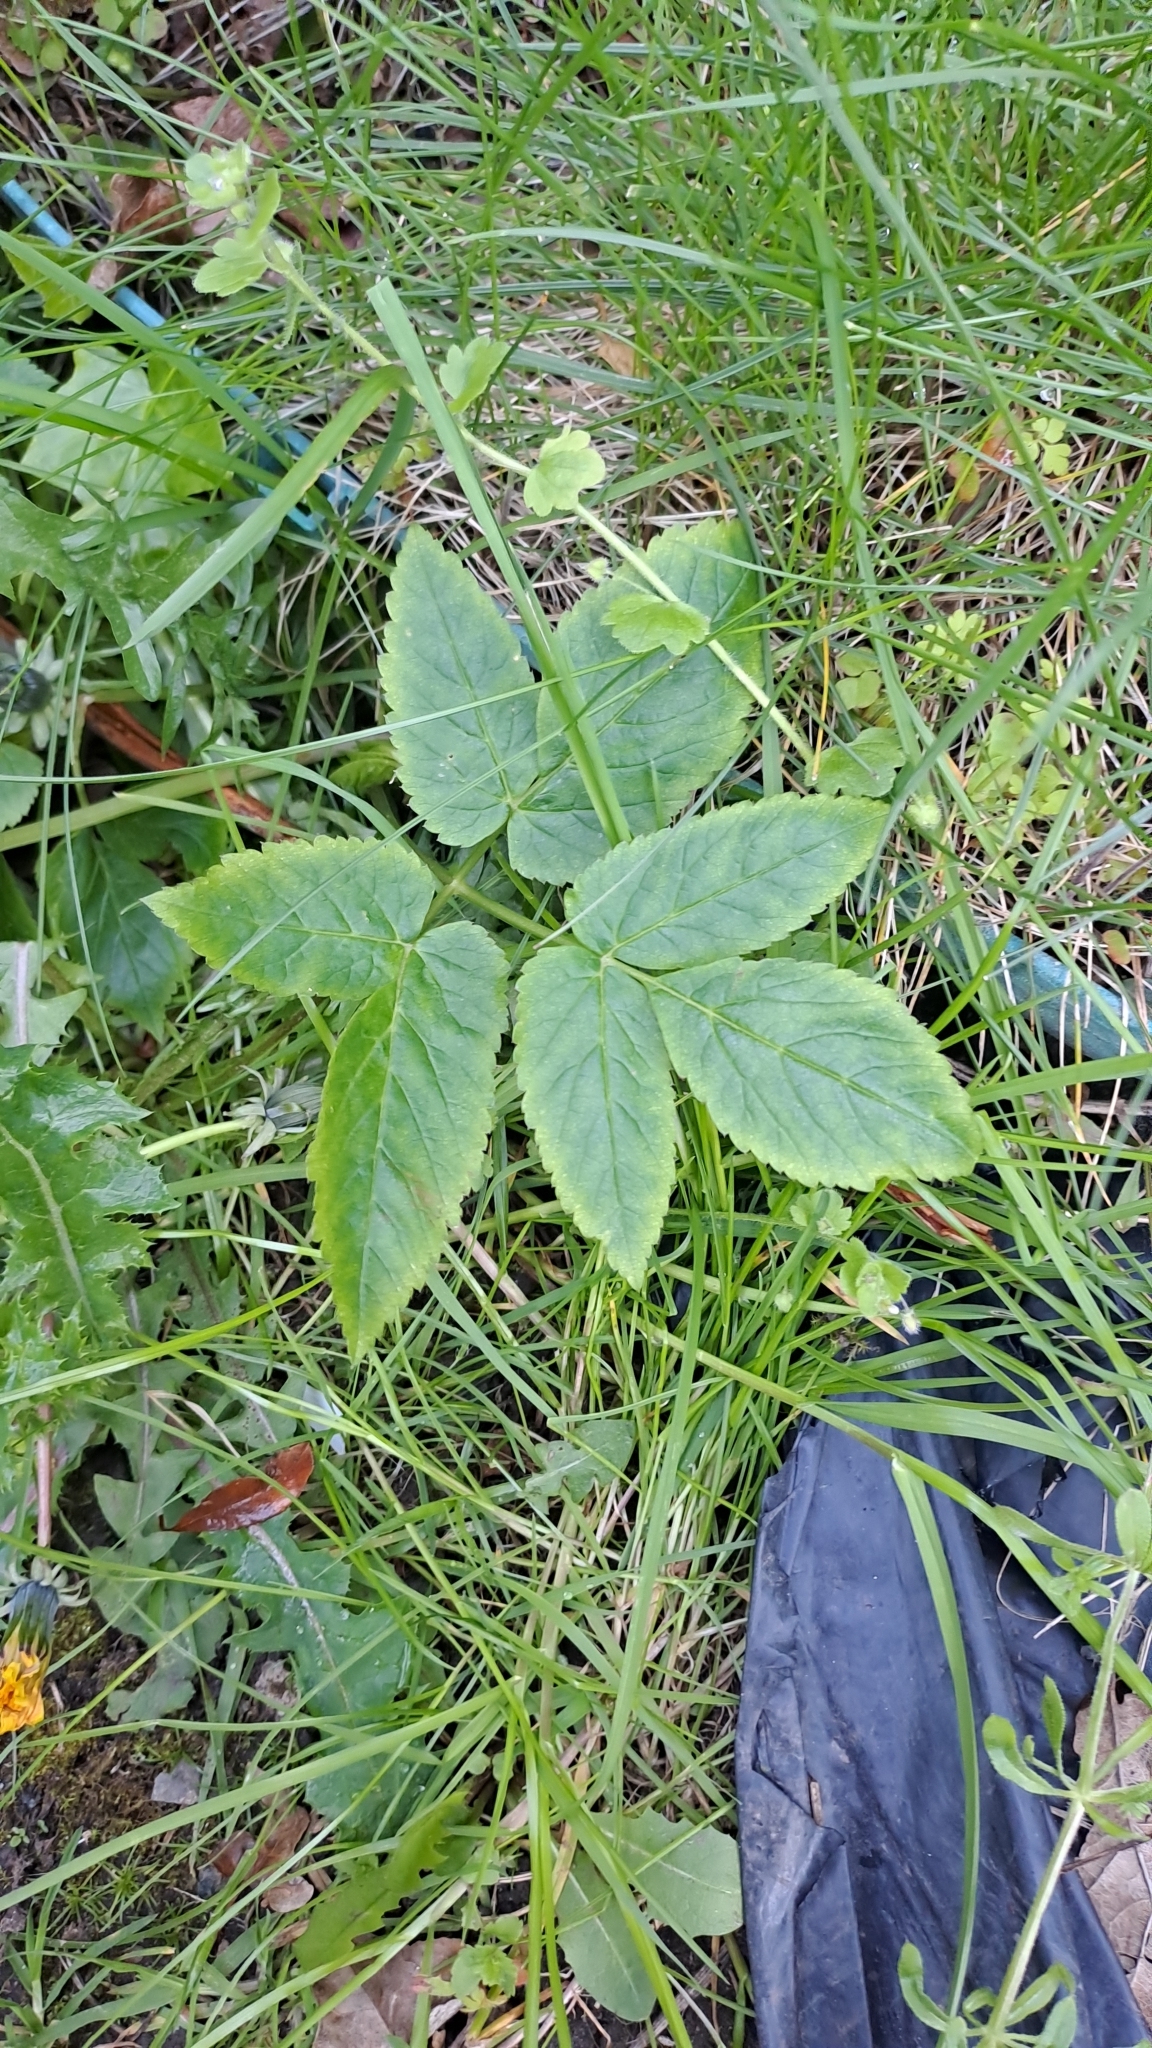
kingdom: Plantae
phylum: Tracheophyta
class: Magnoliopsida
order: Apiales
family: Apiaceae
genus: Aegopodium
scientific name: Aegopodium podagraria
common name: Ground-elder
